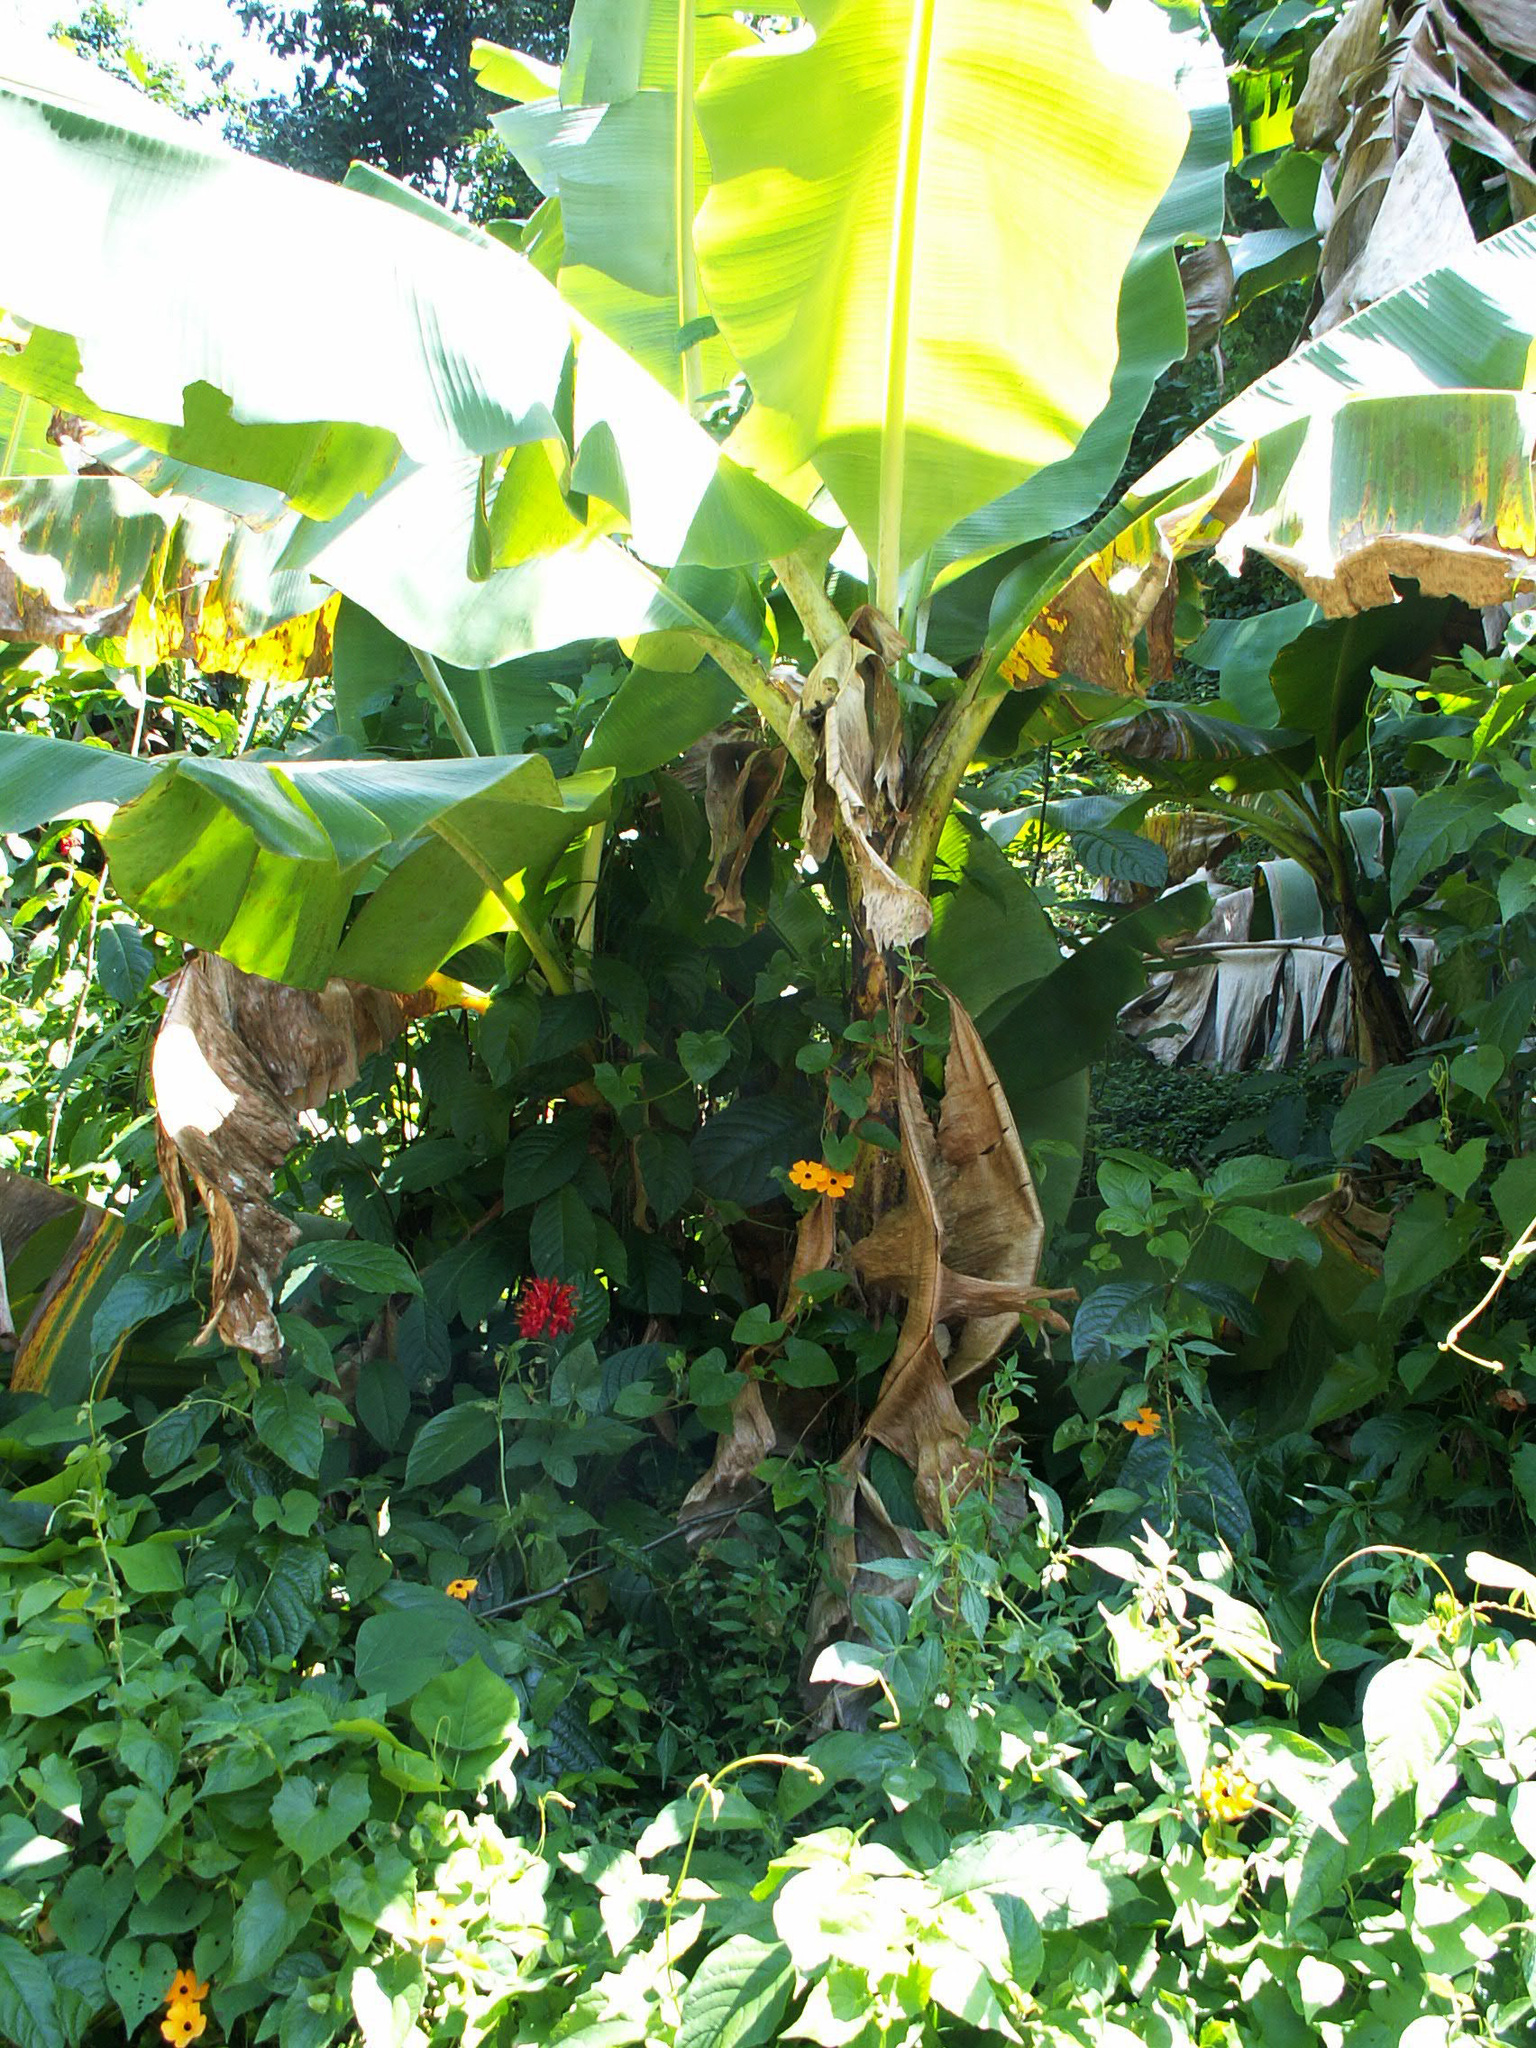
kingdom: Plantae
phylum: Tracheophyta
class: Liliopsida
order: Zingiberales
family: Musaceae
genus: Musa
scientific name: Musa acuminata
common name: Edible banana
